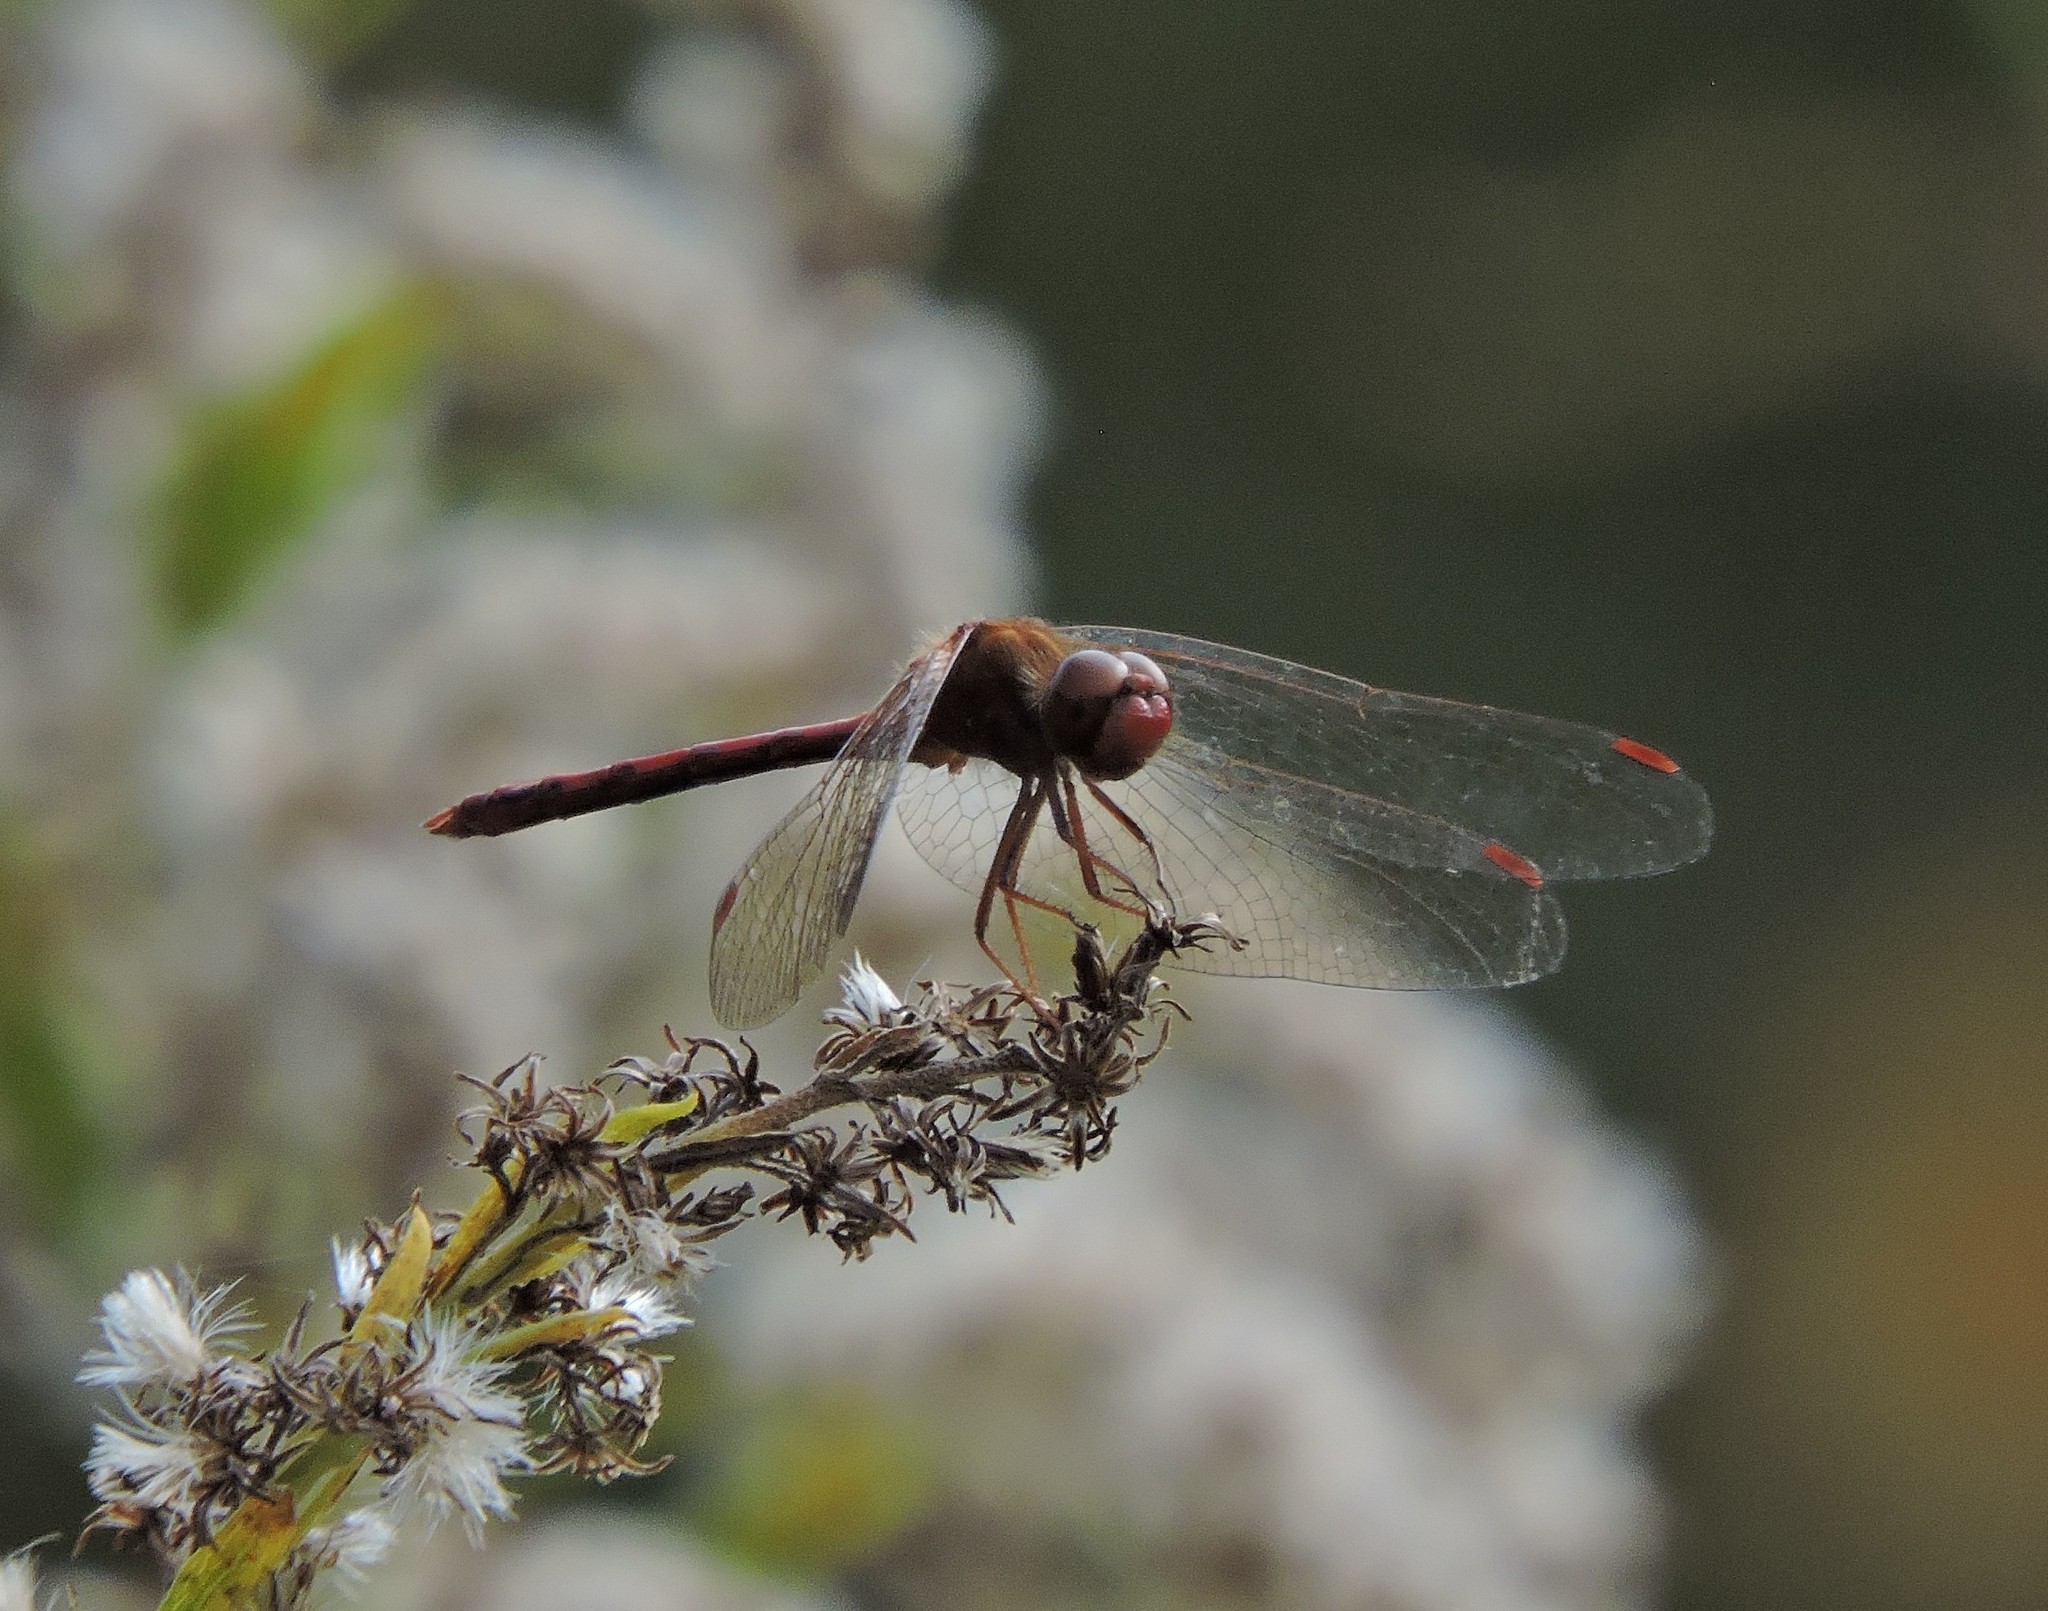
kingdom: Animalia
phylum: Arthropoda
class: Insecta
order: Odonata
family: Libellulidae
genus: Sympetrum
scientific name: Sympetrum vicinum
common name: Autumn meadowhawk
